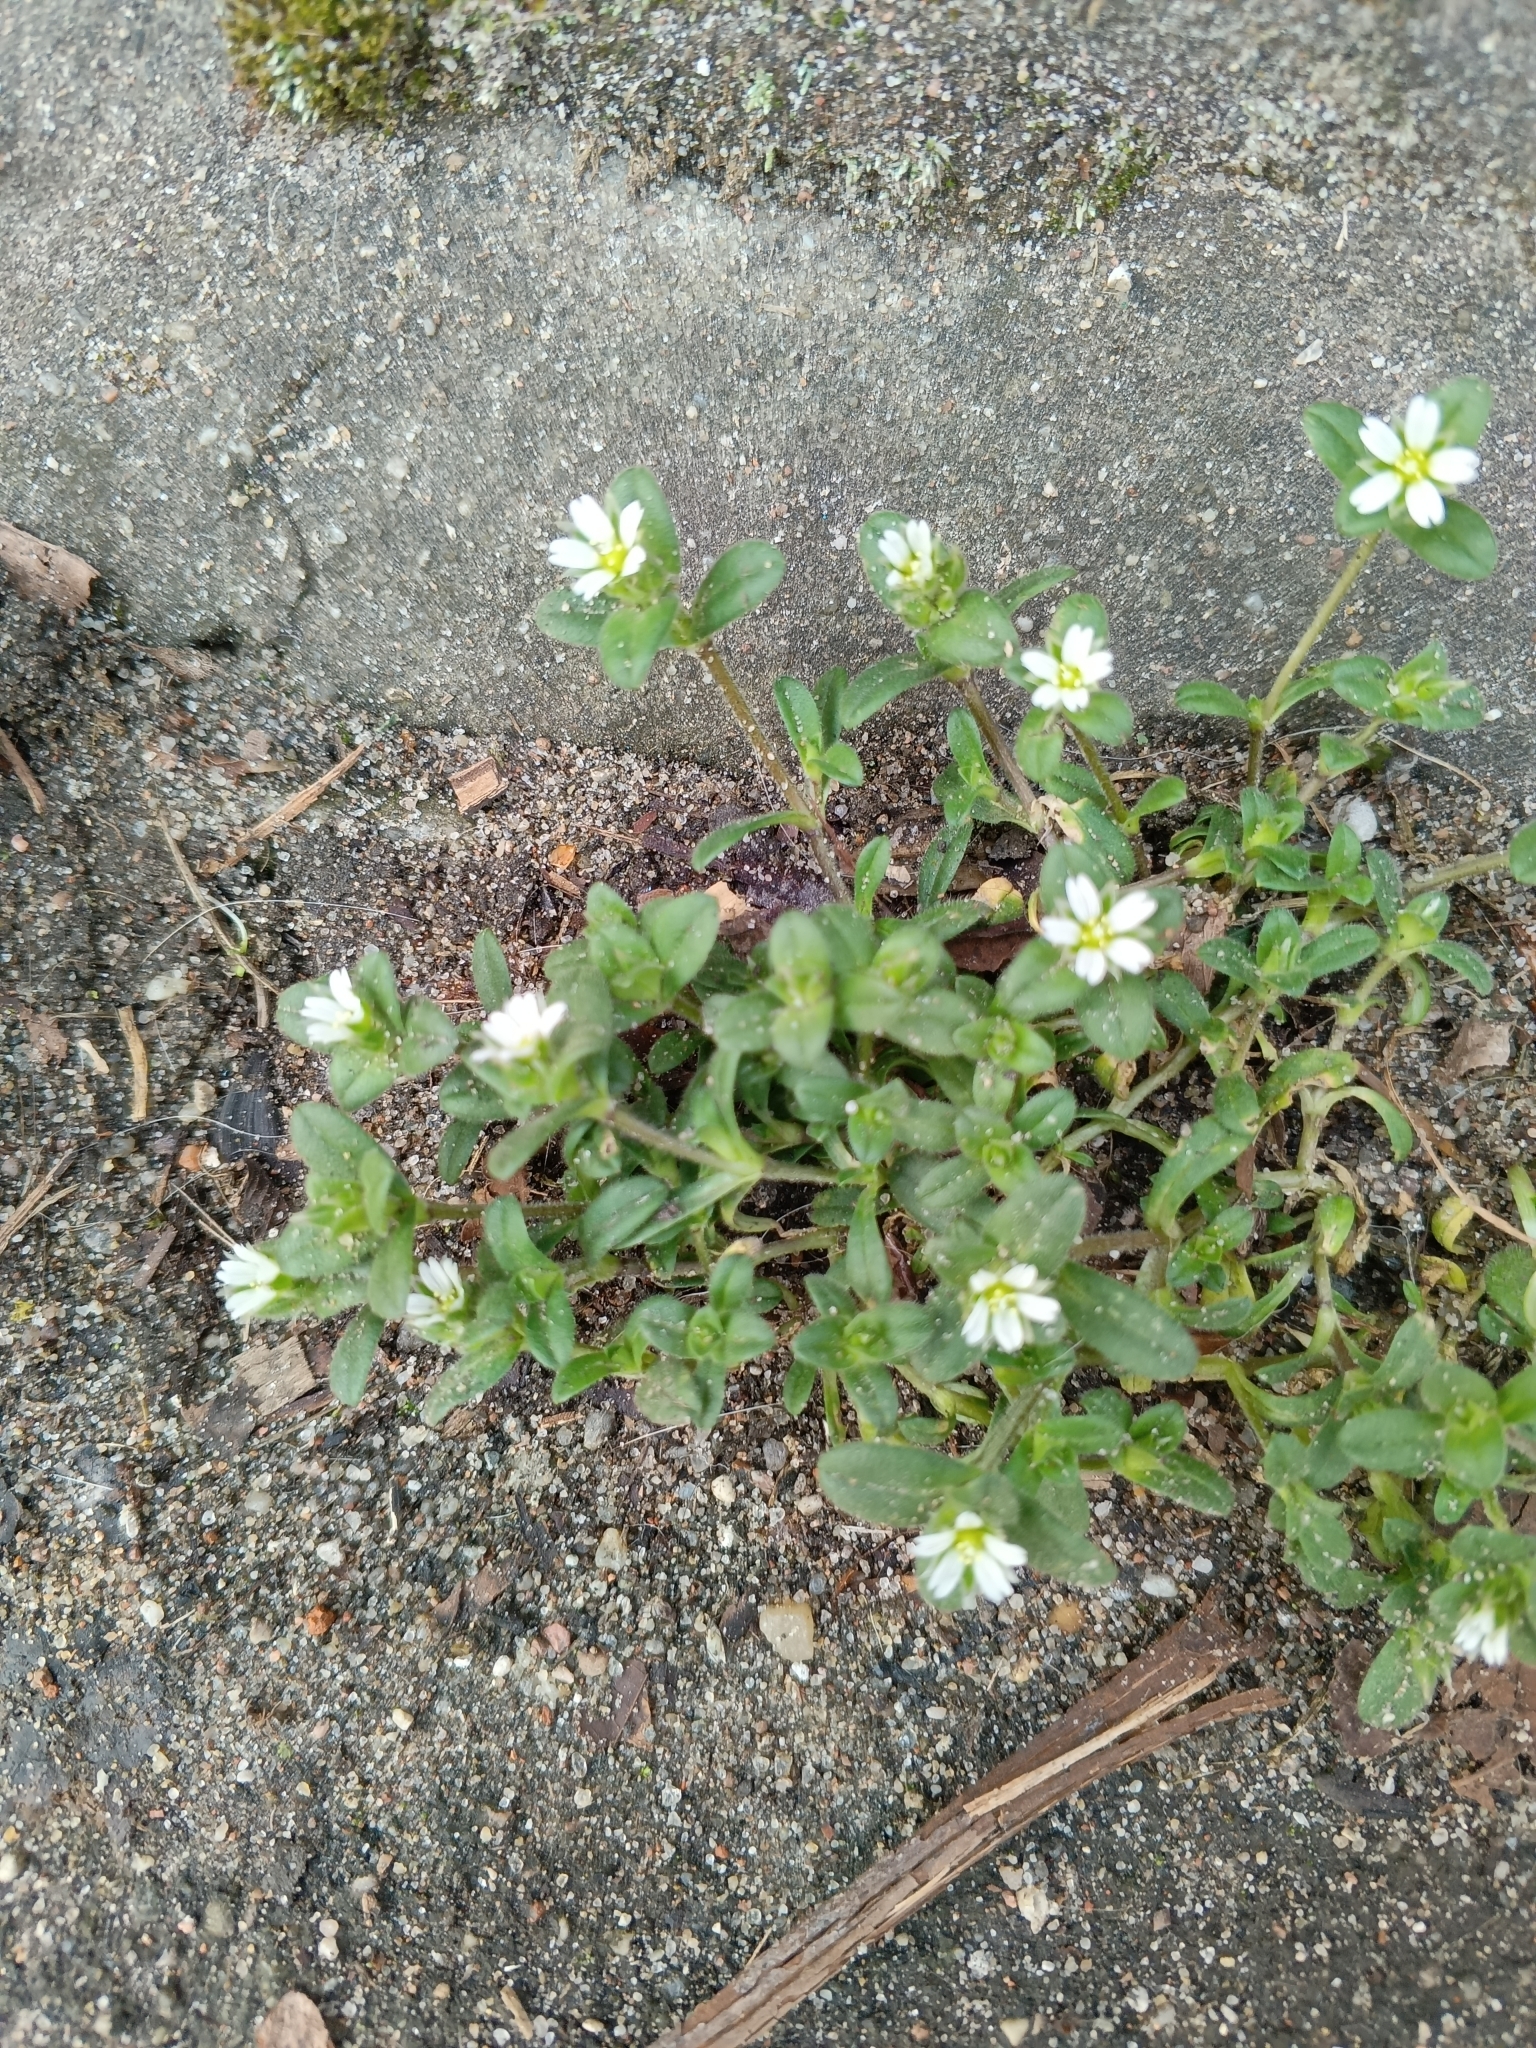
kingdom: Plantae
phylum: Tracheophyta
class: Magnoliopsida
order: Caryophyllales
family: Caryophyllaceae
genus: Cerastium
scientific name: Cerastium holosteoides
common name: Big chickweed
